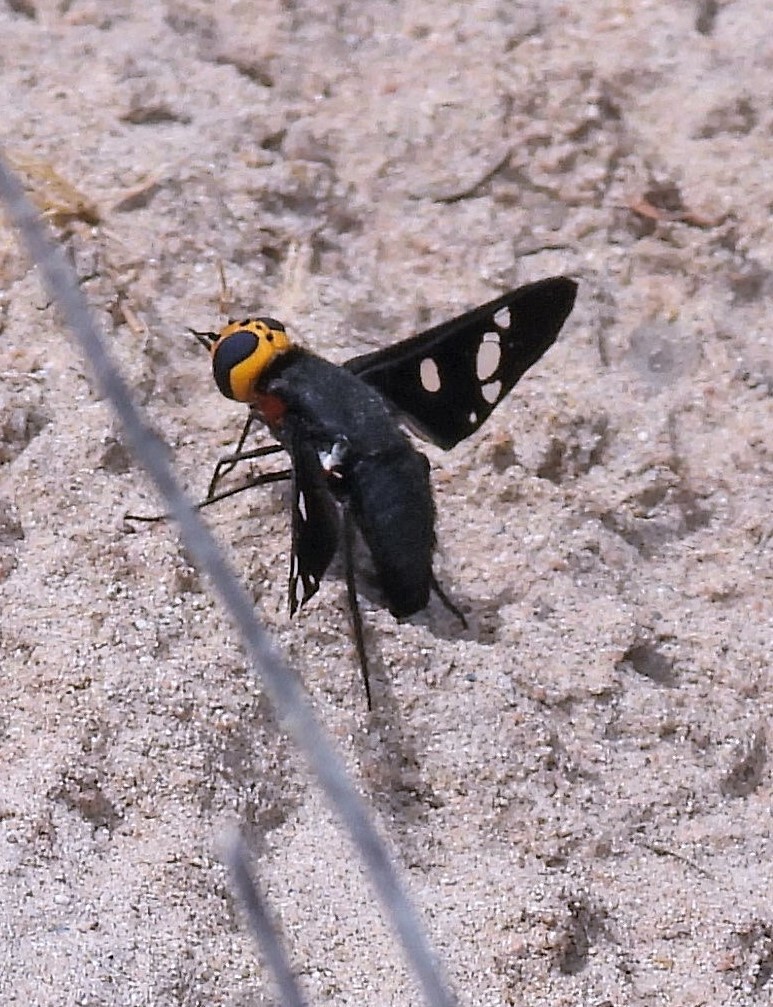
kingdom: Animalia
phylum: Arthropoda
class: Insecta
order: Diptera
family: Bombyliidae
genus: Hyperalonia
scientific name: Hyperalonia morio
